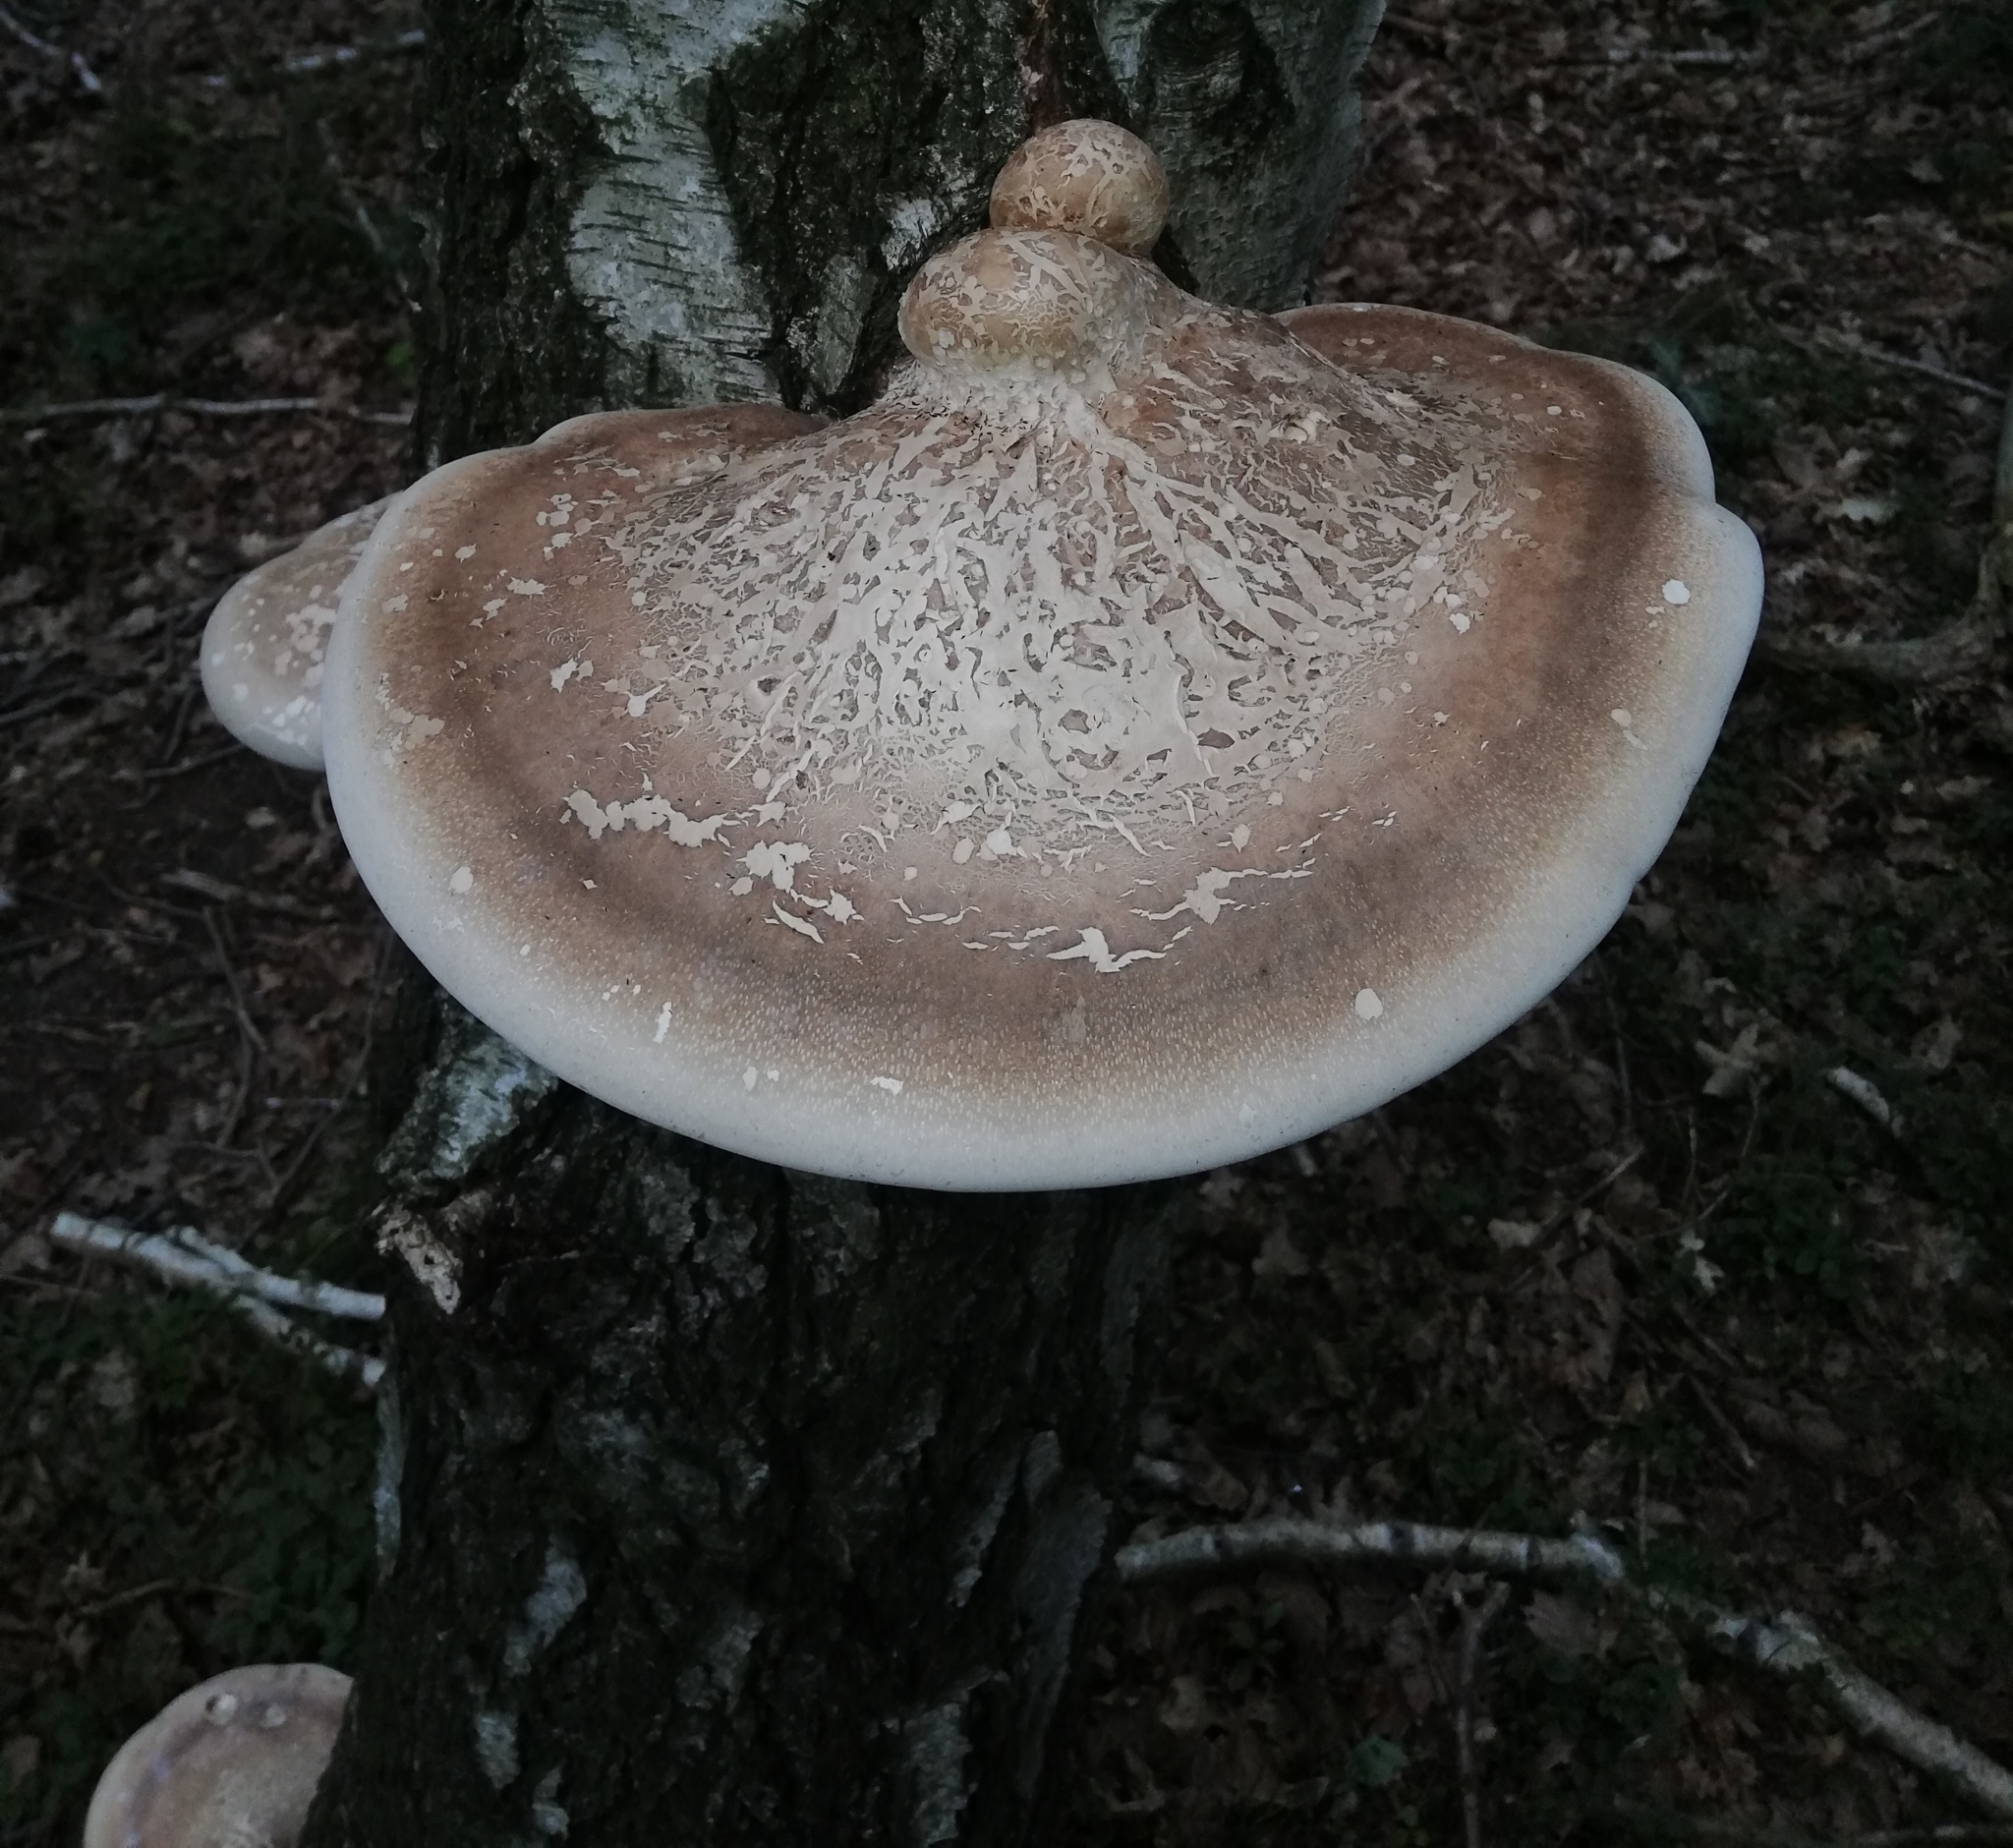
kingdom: Fungi
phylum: Basidiomycota
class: Agaricomycetes
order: Polyporales
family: Fomitopsidaceae
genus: Fomitopsis
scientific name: Fomitopsis betulina
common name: Birch polypore
